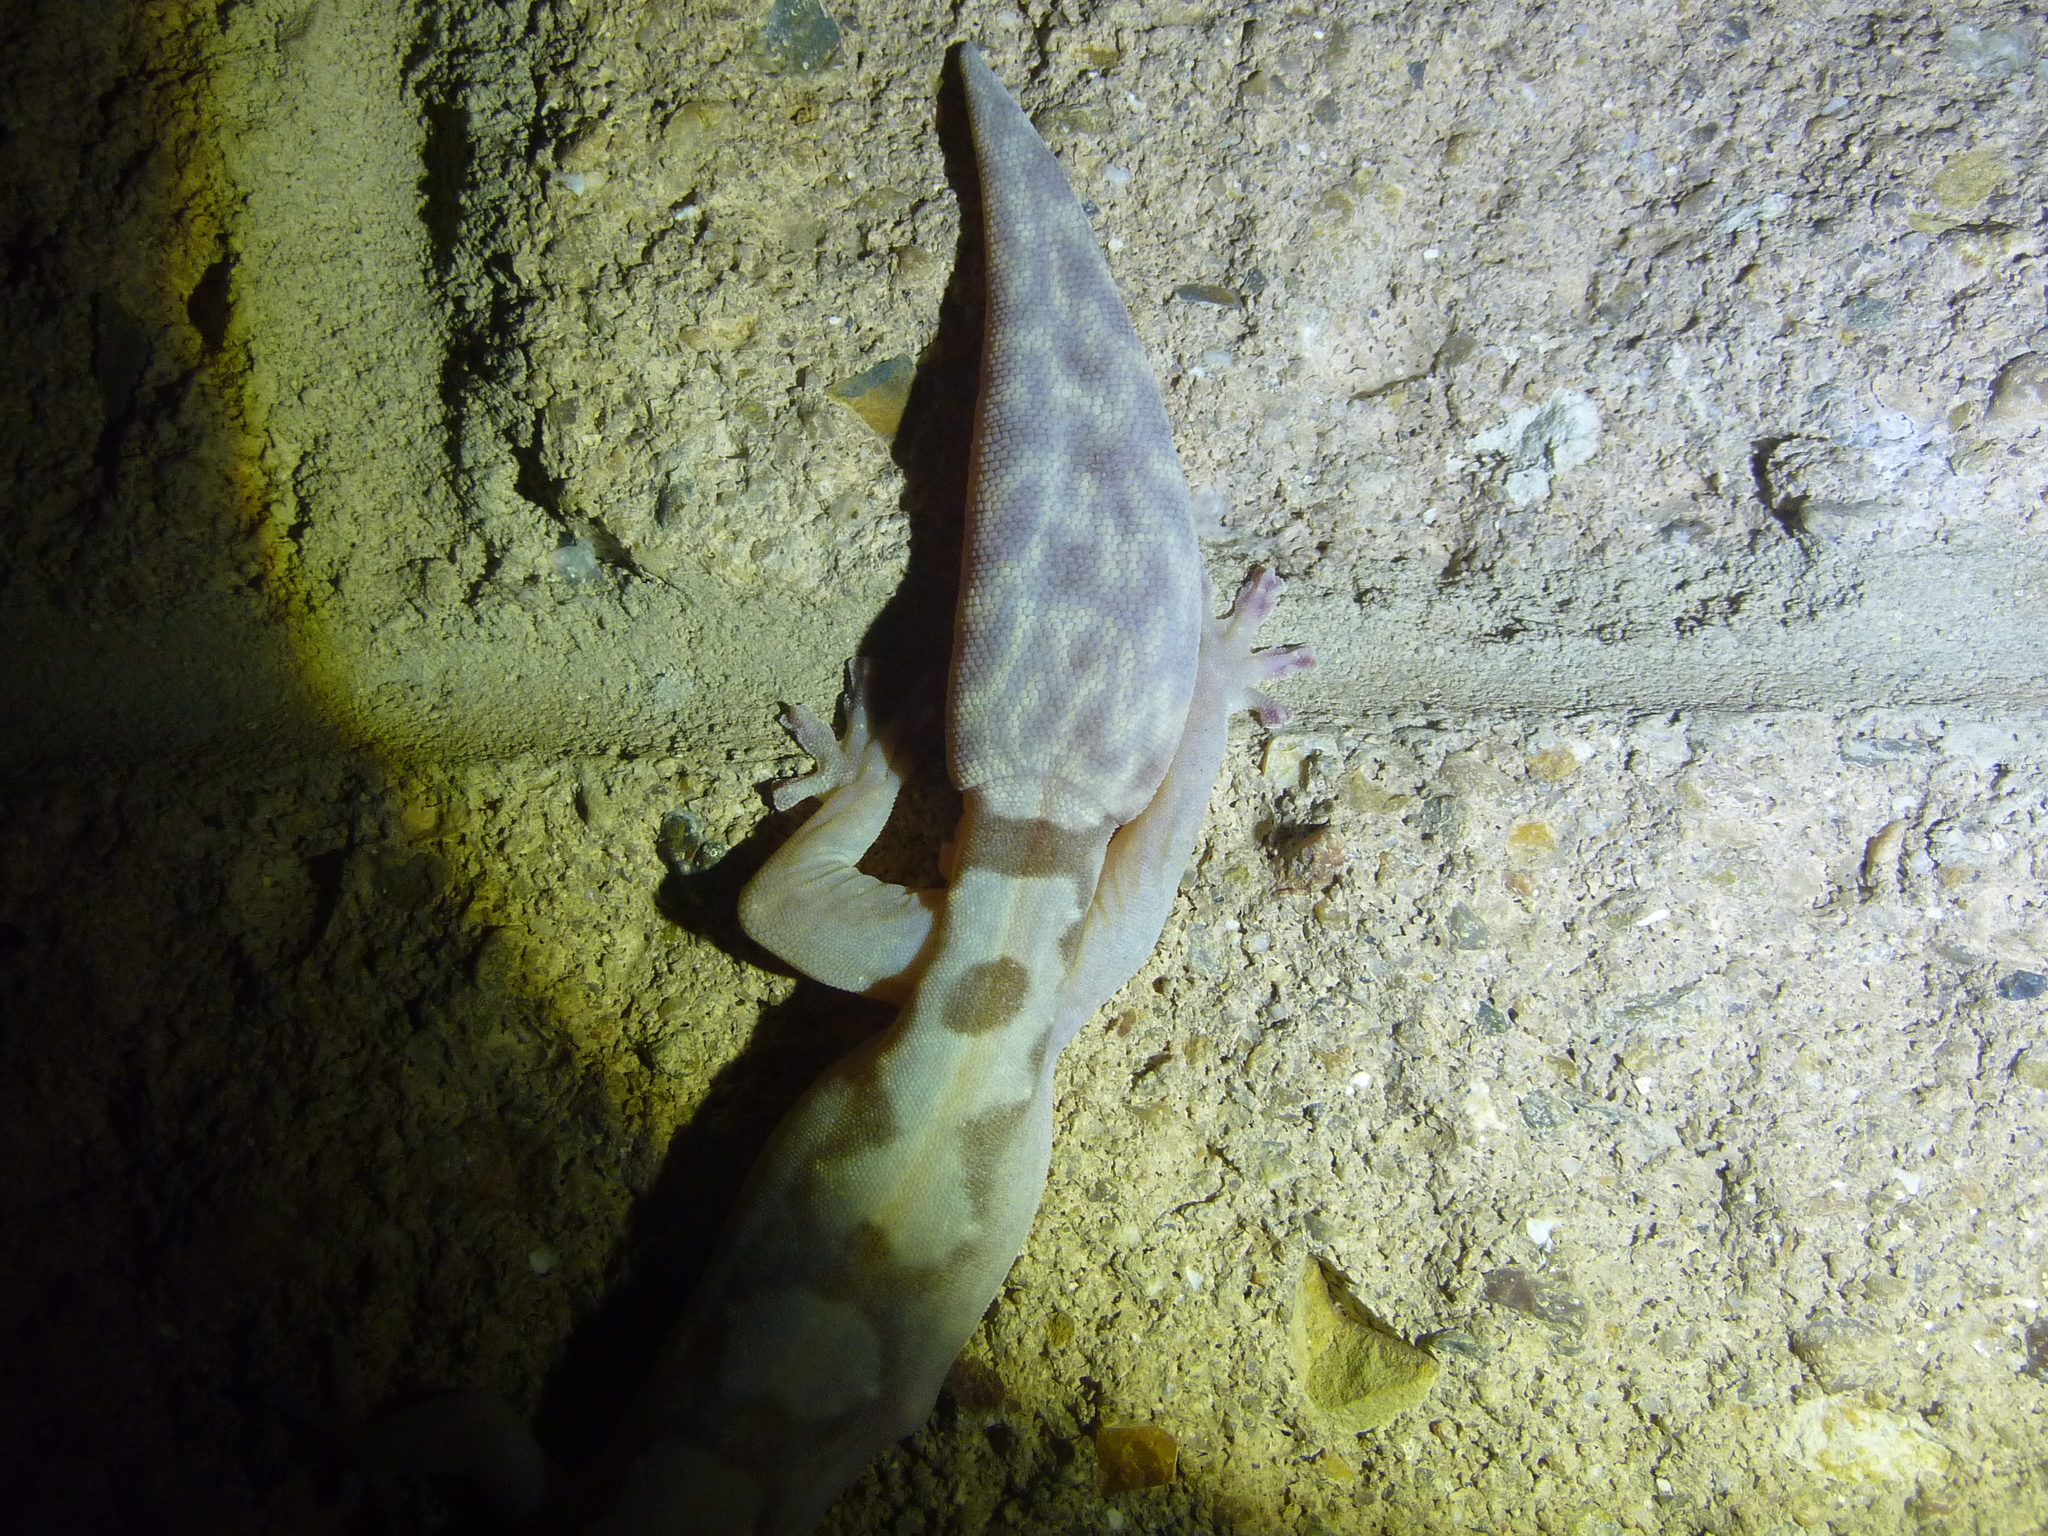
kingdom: Animalia
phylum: Chordata
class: Squamata
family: Diplodactylidae
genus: Nebulifera
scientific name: Nebulifera robusta
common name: Robust gecko
